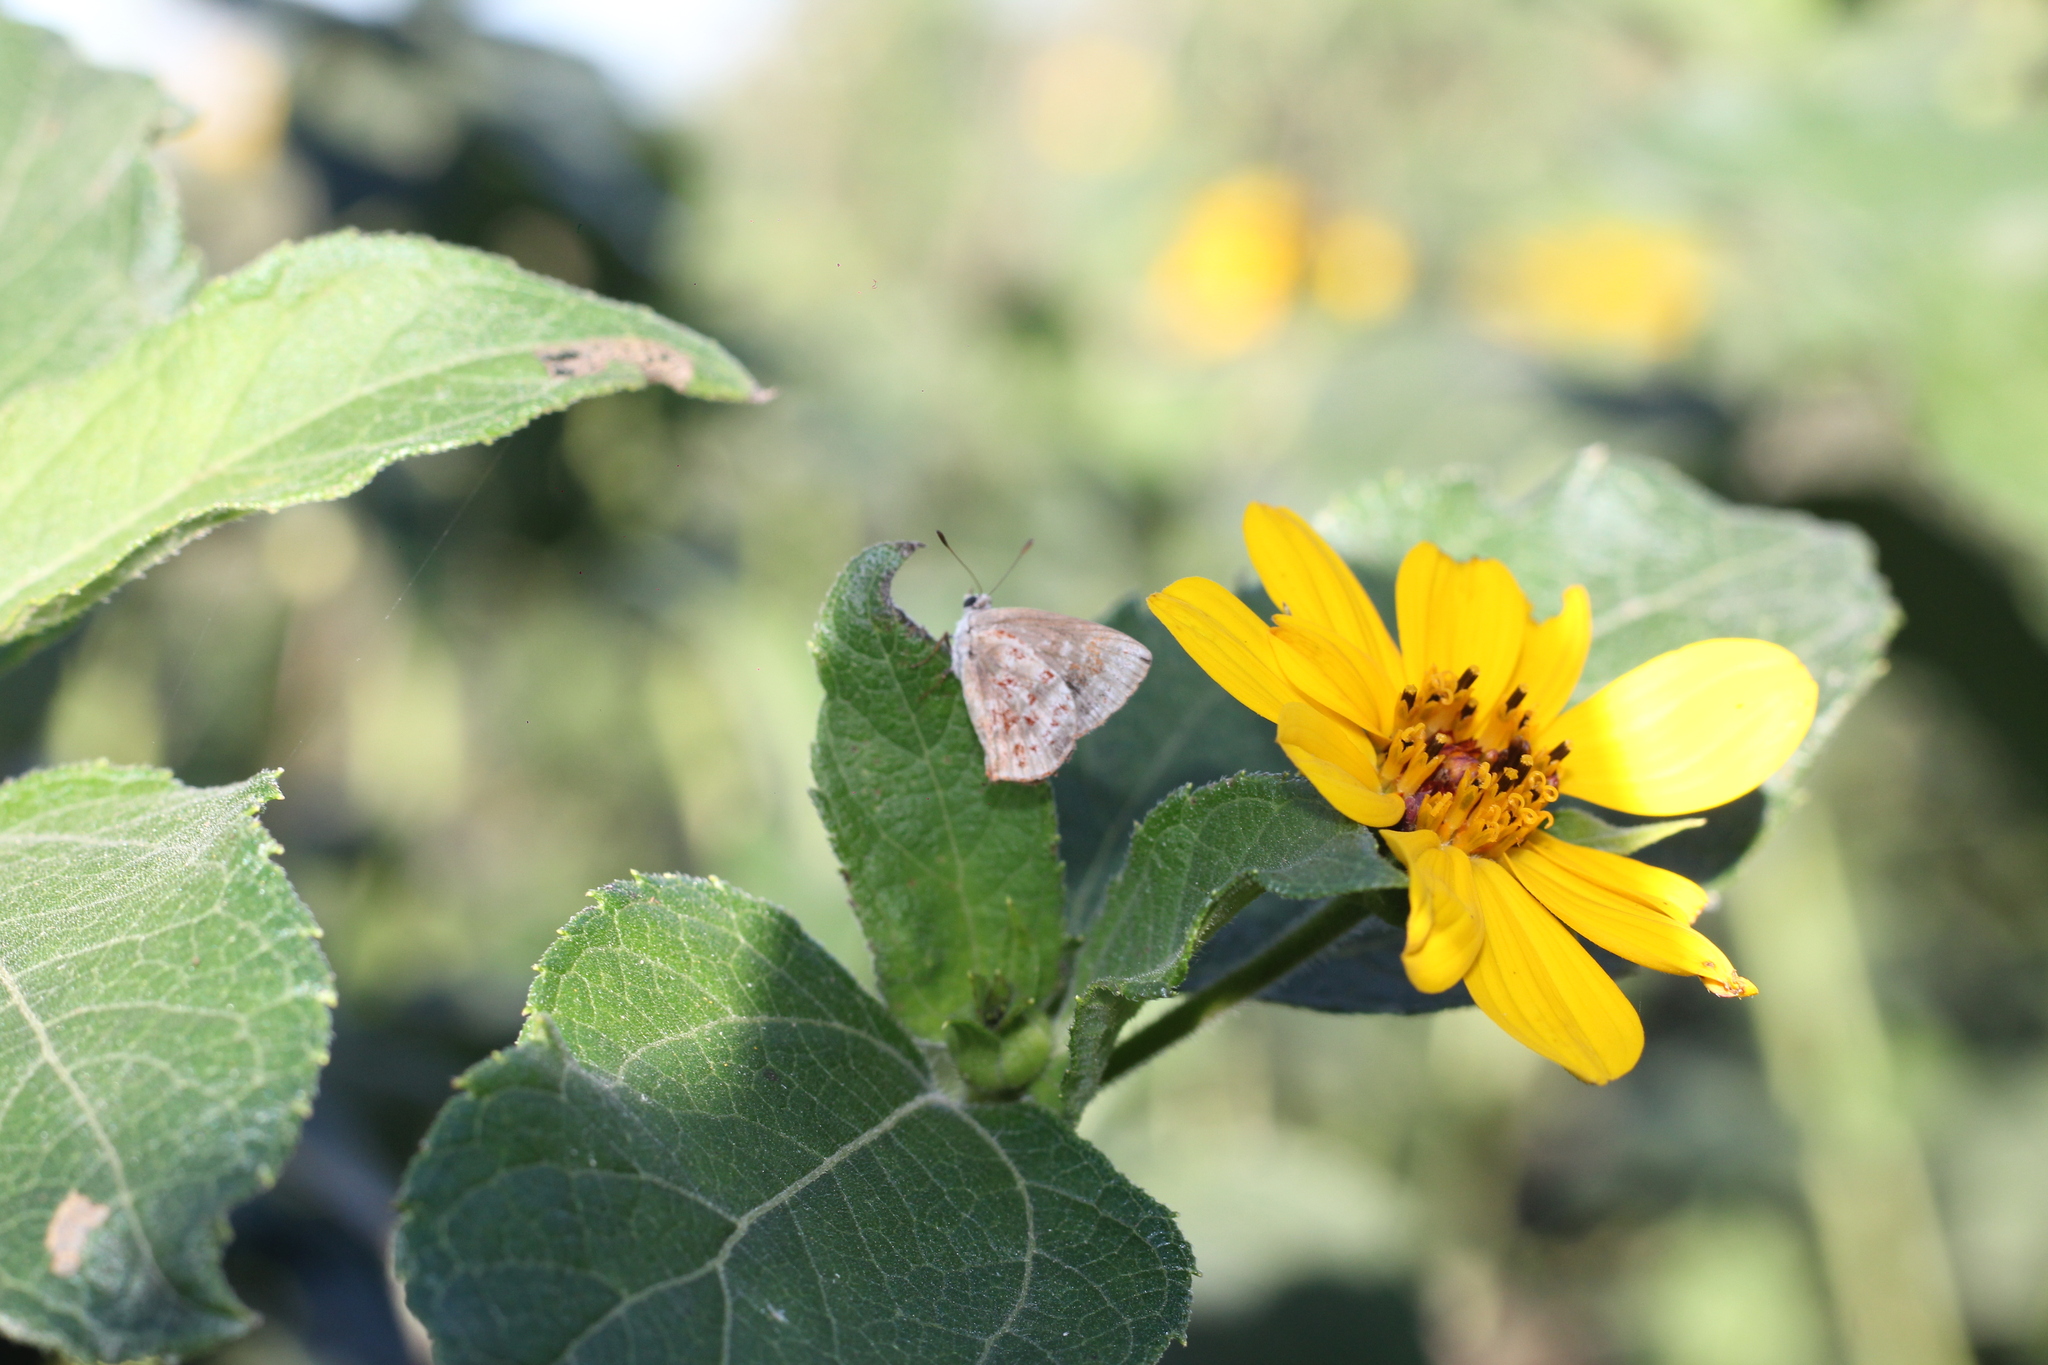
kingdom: Animalia
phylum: Arthropoda
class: Insecta
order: Lepidoptera
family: Lycaenidae
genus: Ministrymon
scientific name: Ministrymon
